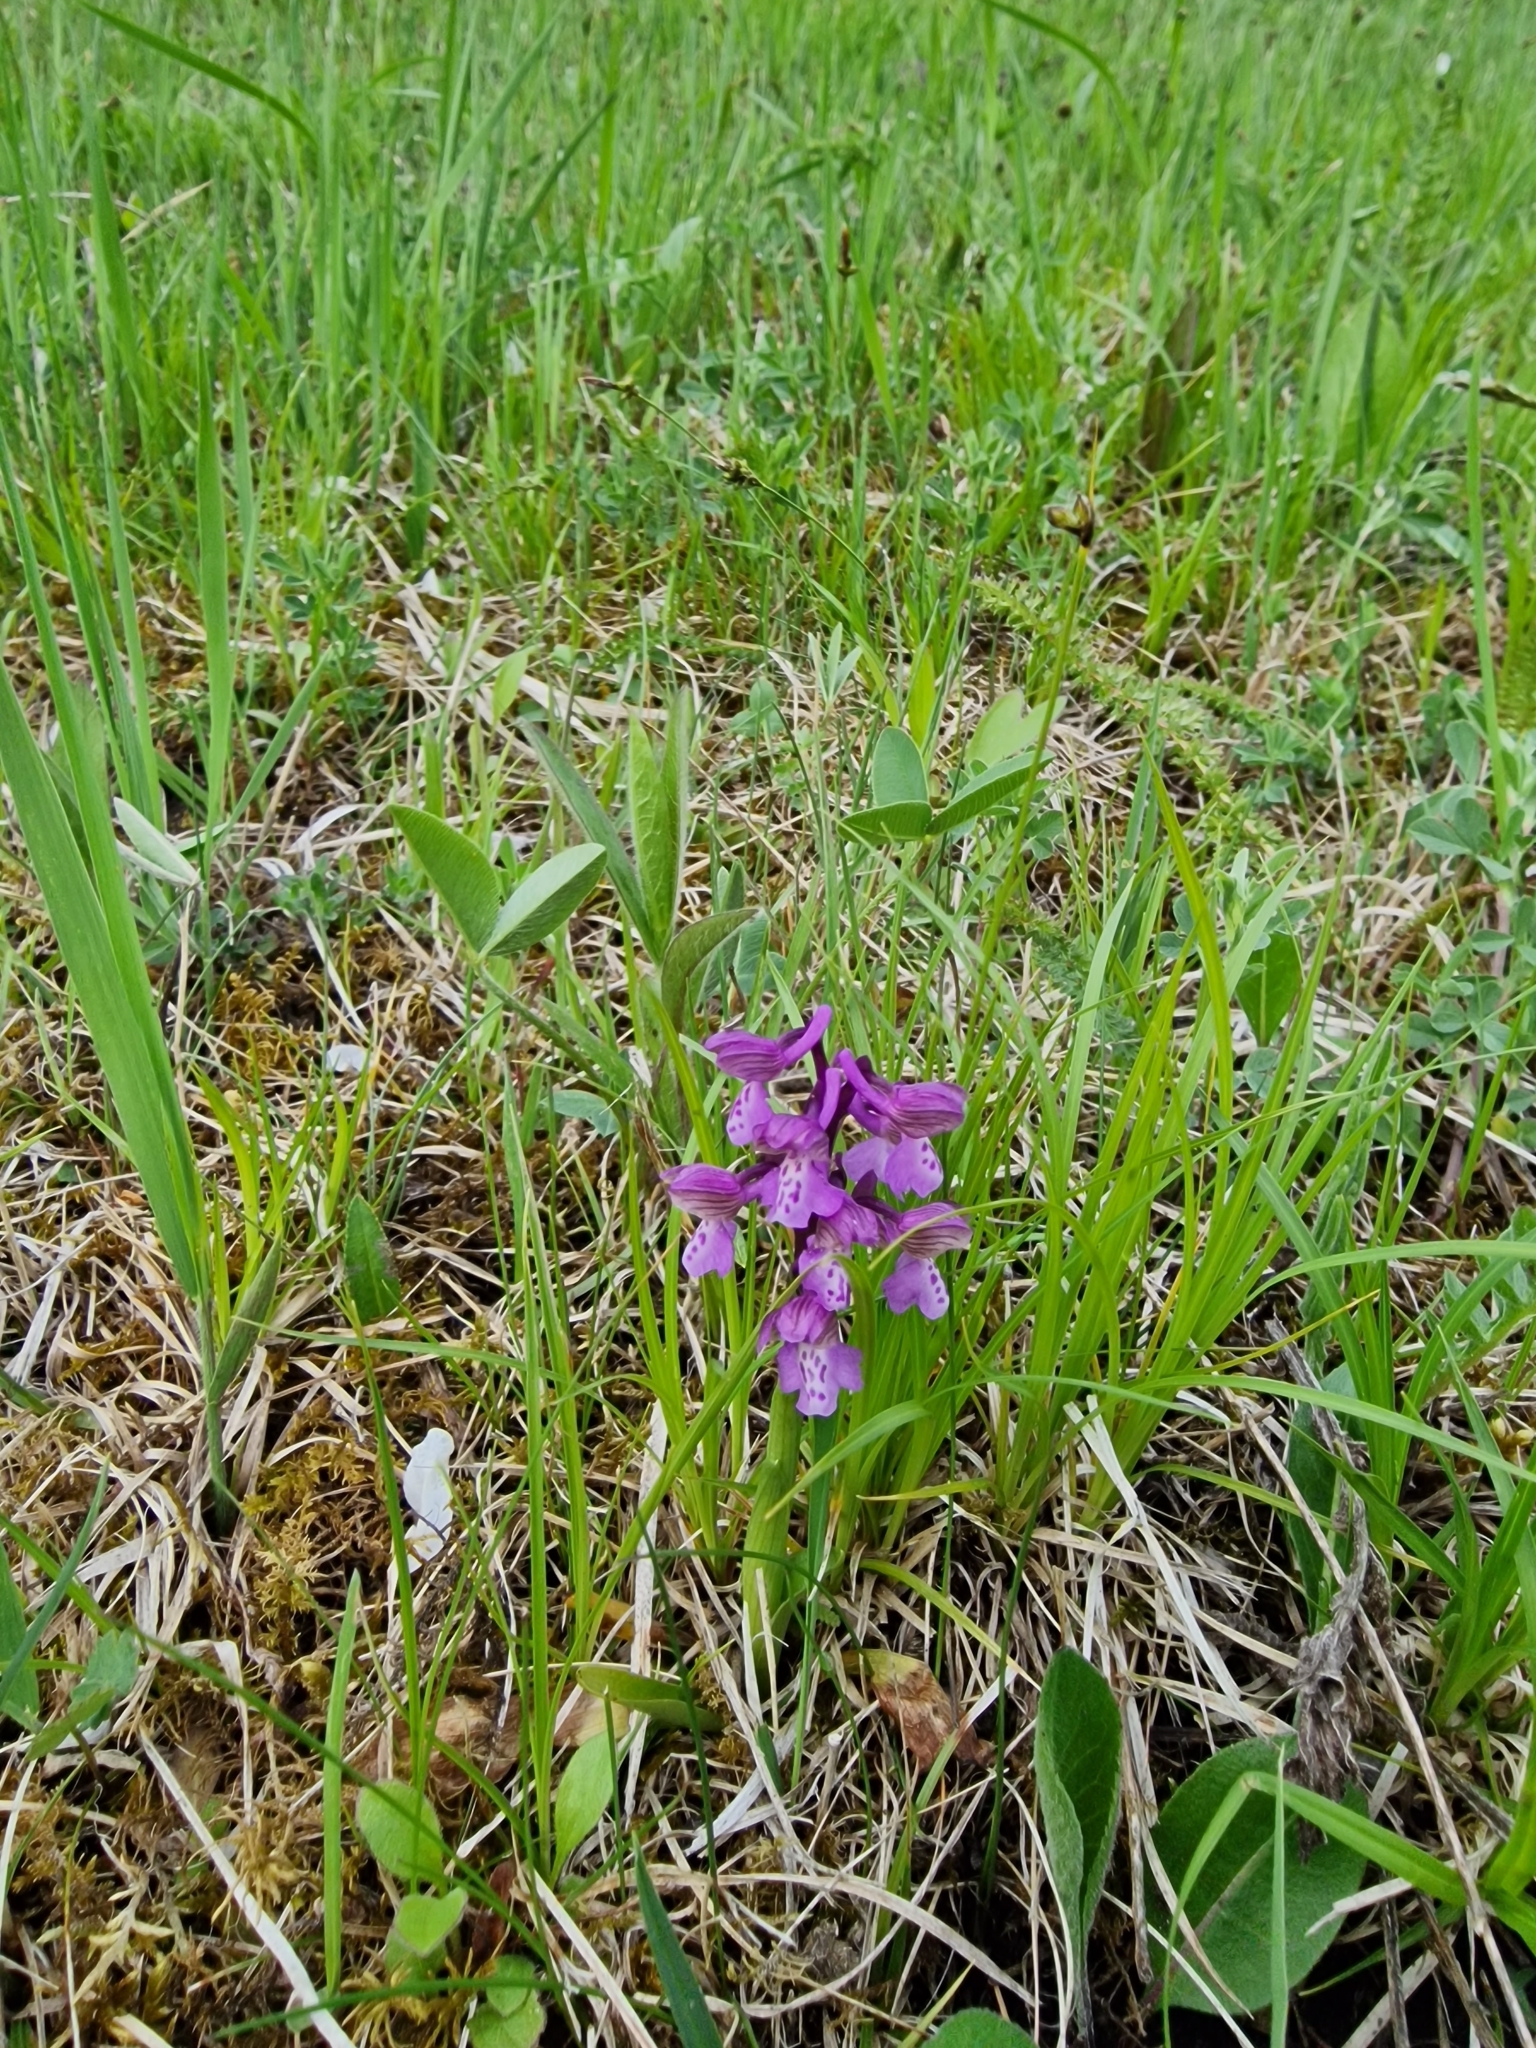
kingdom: Plantae
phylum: Tracheophyta
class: Liliopsida
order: Asparagales
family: Orchidaceae
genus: Anacamptis
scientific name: Anacamptis morio
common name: Green-winged orchid
